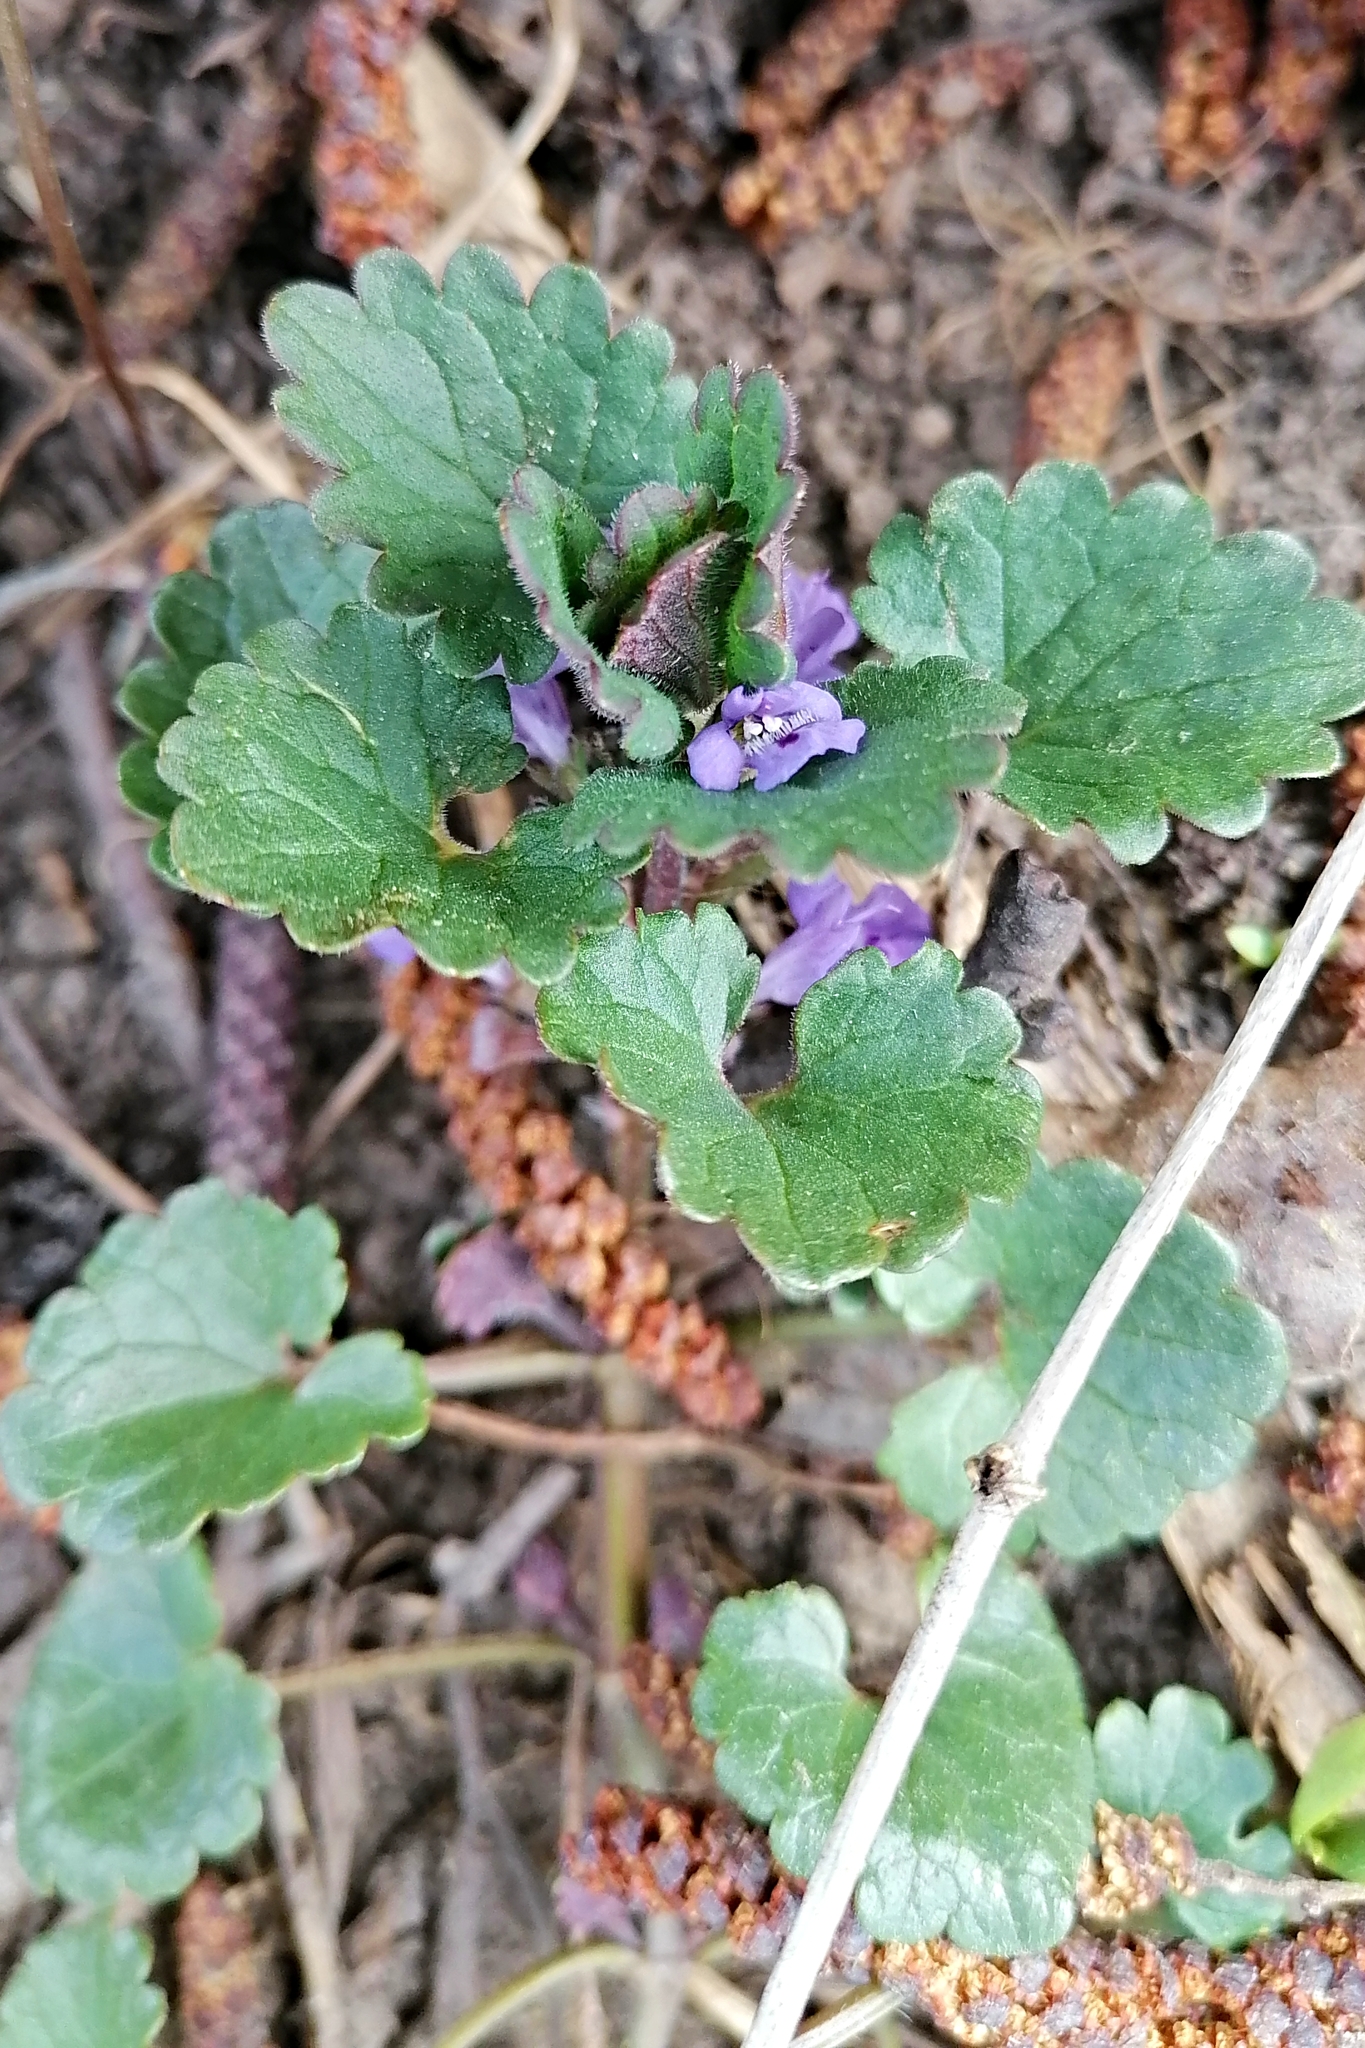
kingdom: Plantae
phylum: Tracheophyta
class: Magnoliopsida
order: Lamiales
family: Lamiaceae
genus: Glechoma
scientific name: Glechoma hederacea
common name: Ground ivy
